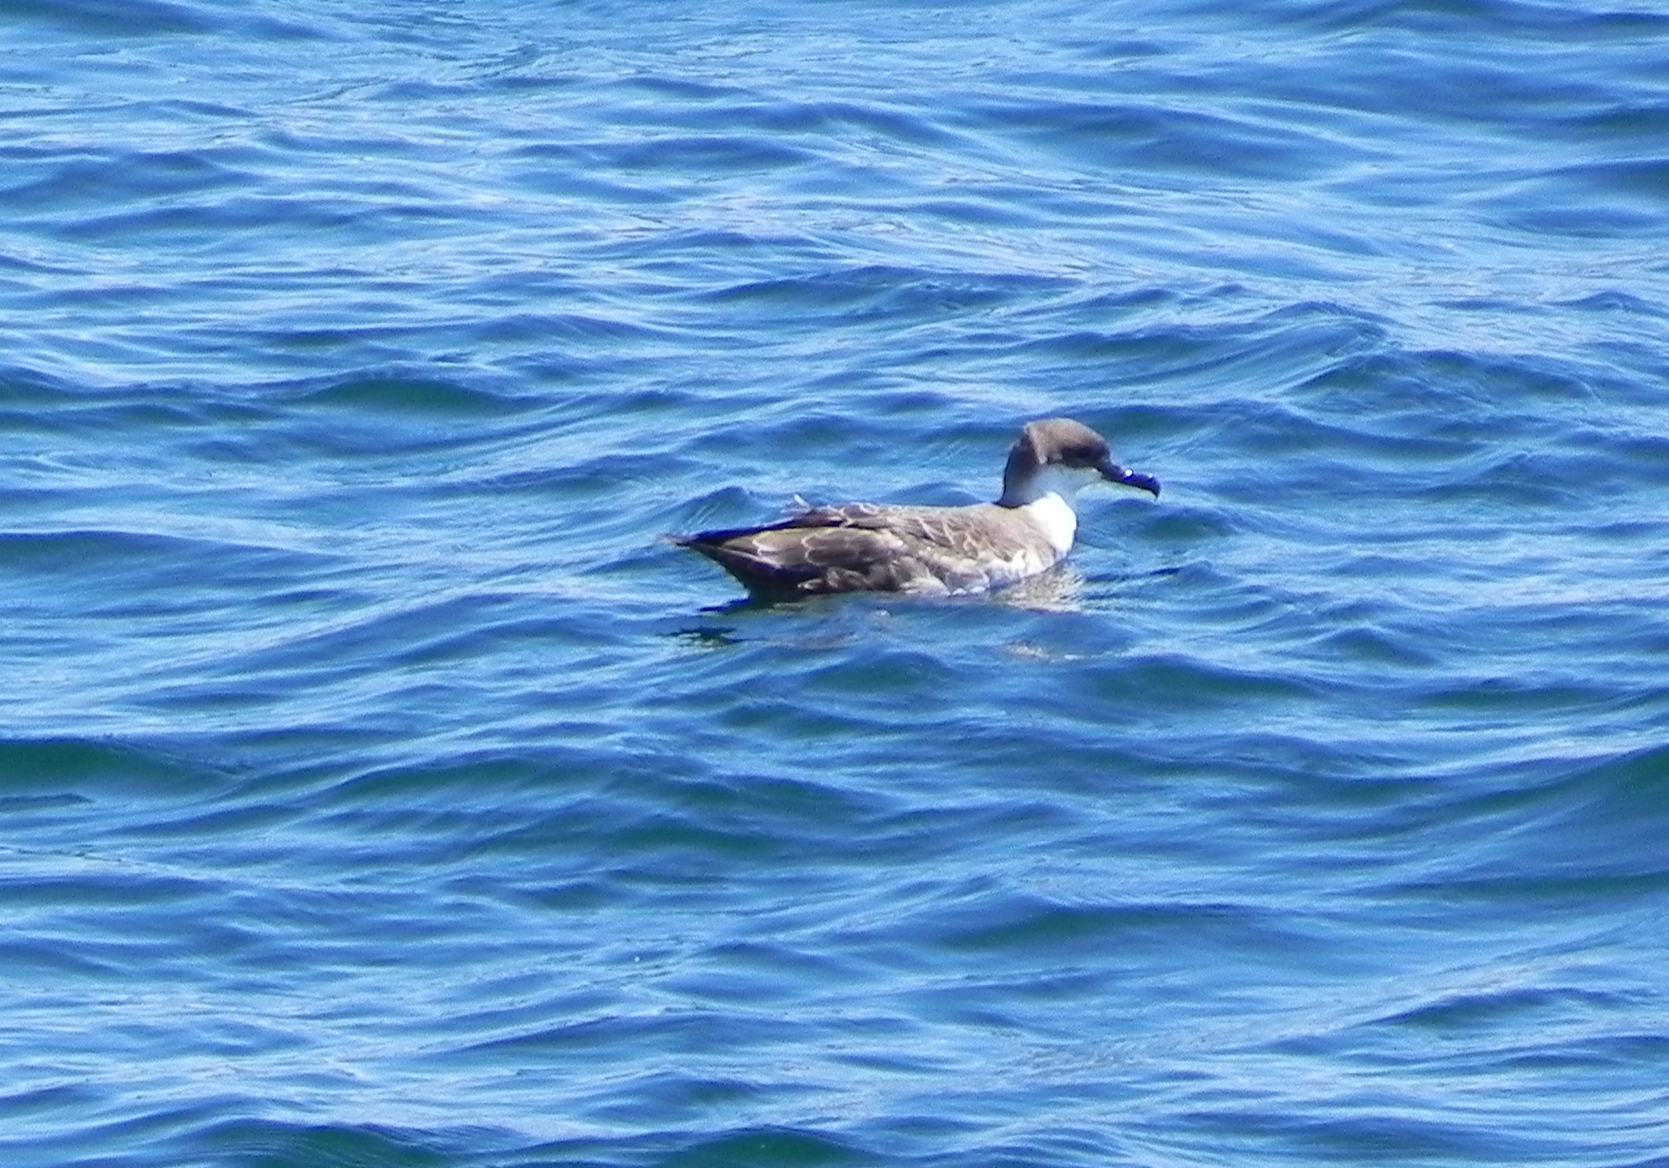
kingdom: Animalia
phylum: Chordata
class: Aves
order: Procellariiformes
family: Procellariidae
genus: Puffinus
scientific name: Puffinus gravis
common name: Great shearwater
